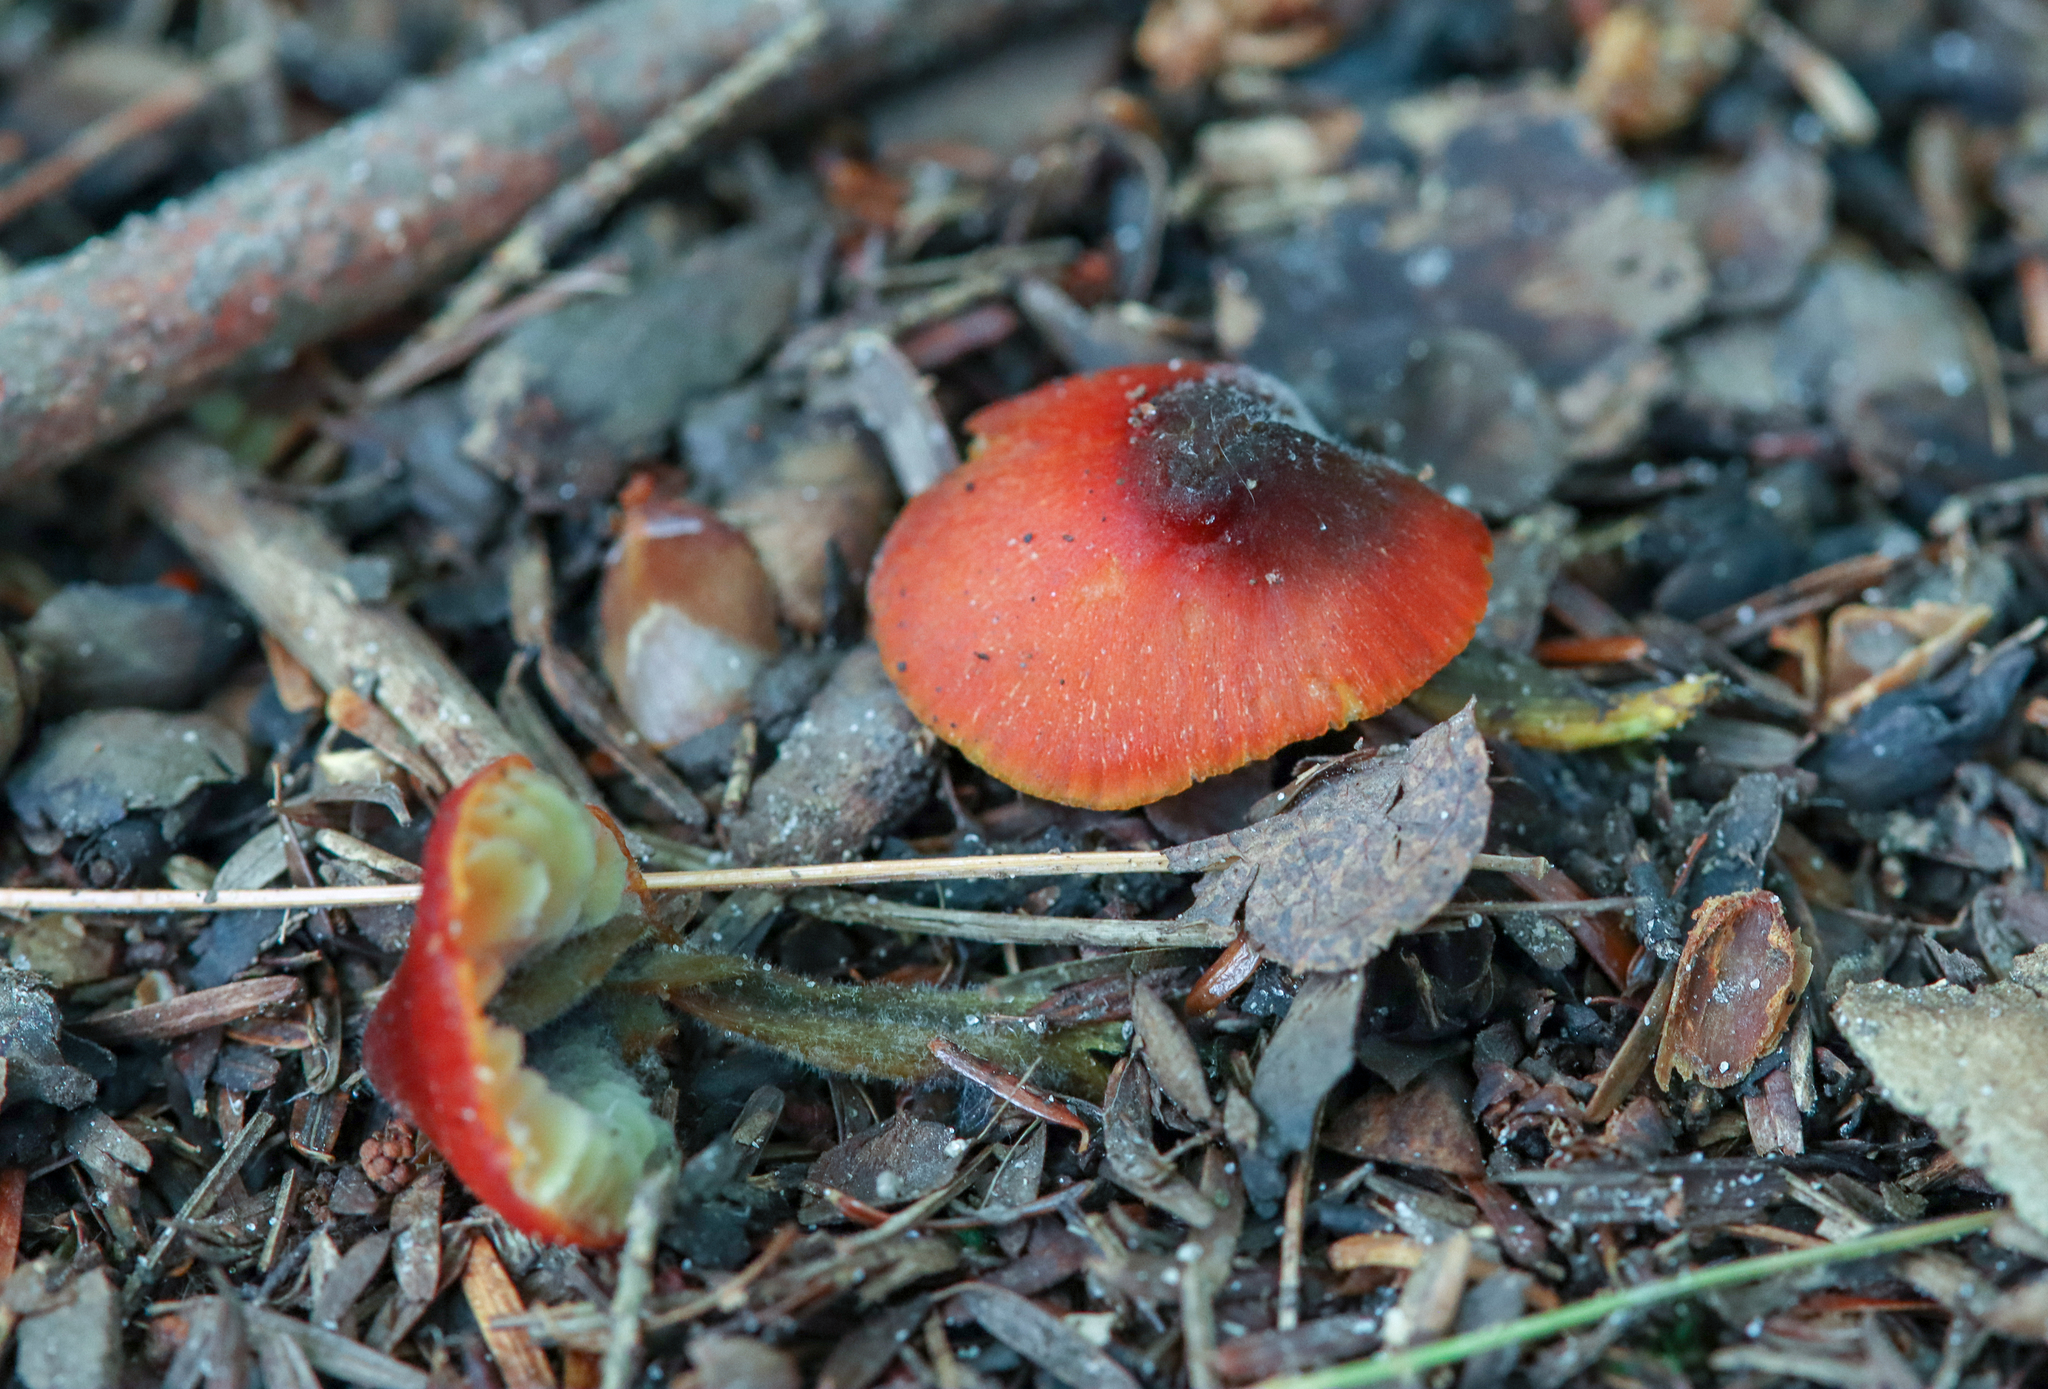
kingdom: Fungi
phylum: Basidiomycota
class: Agaricomycetes
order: Agaricales
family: Hygrophoraceae
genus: Hygrocybe
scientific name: Hygrocybe conica
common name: Blackening wax-cap
